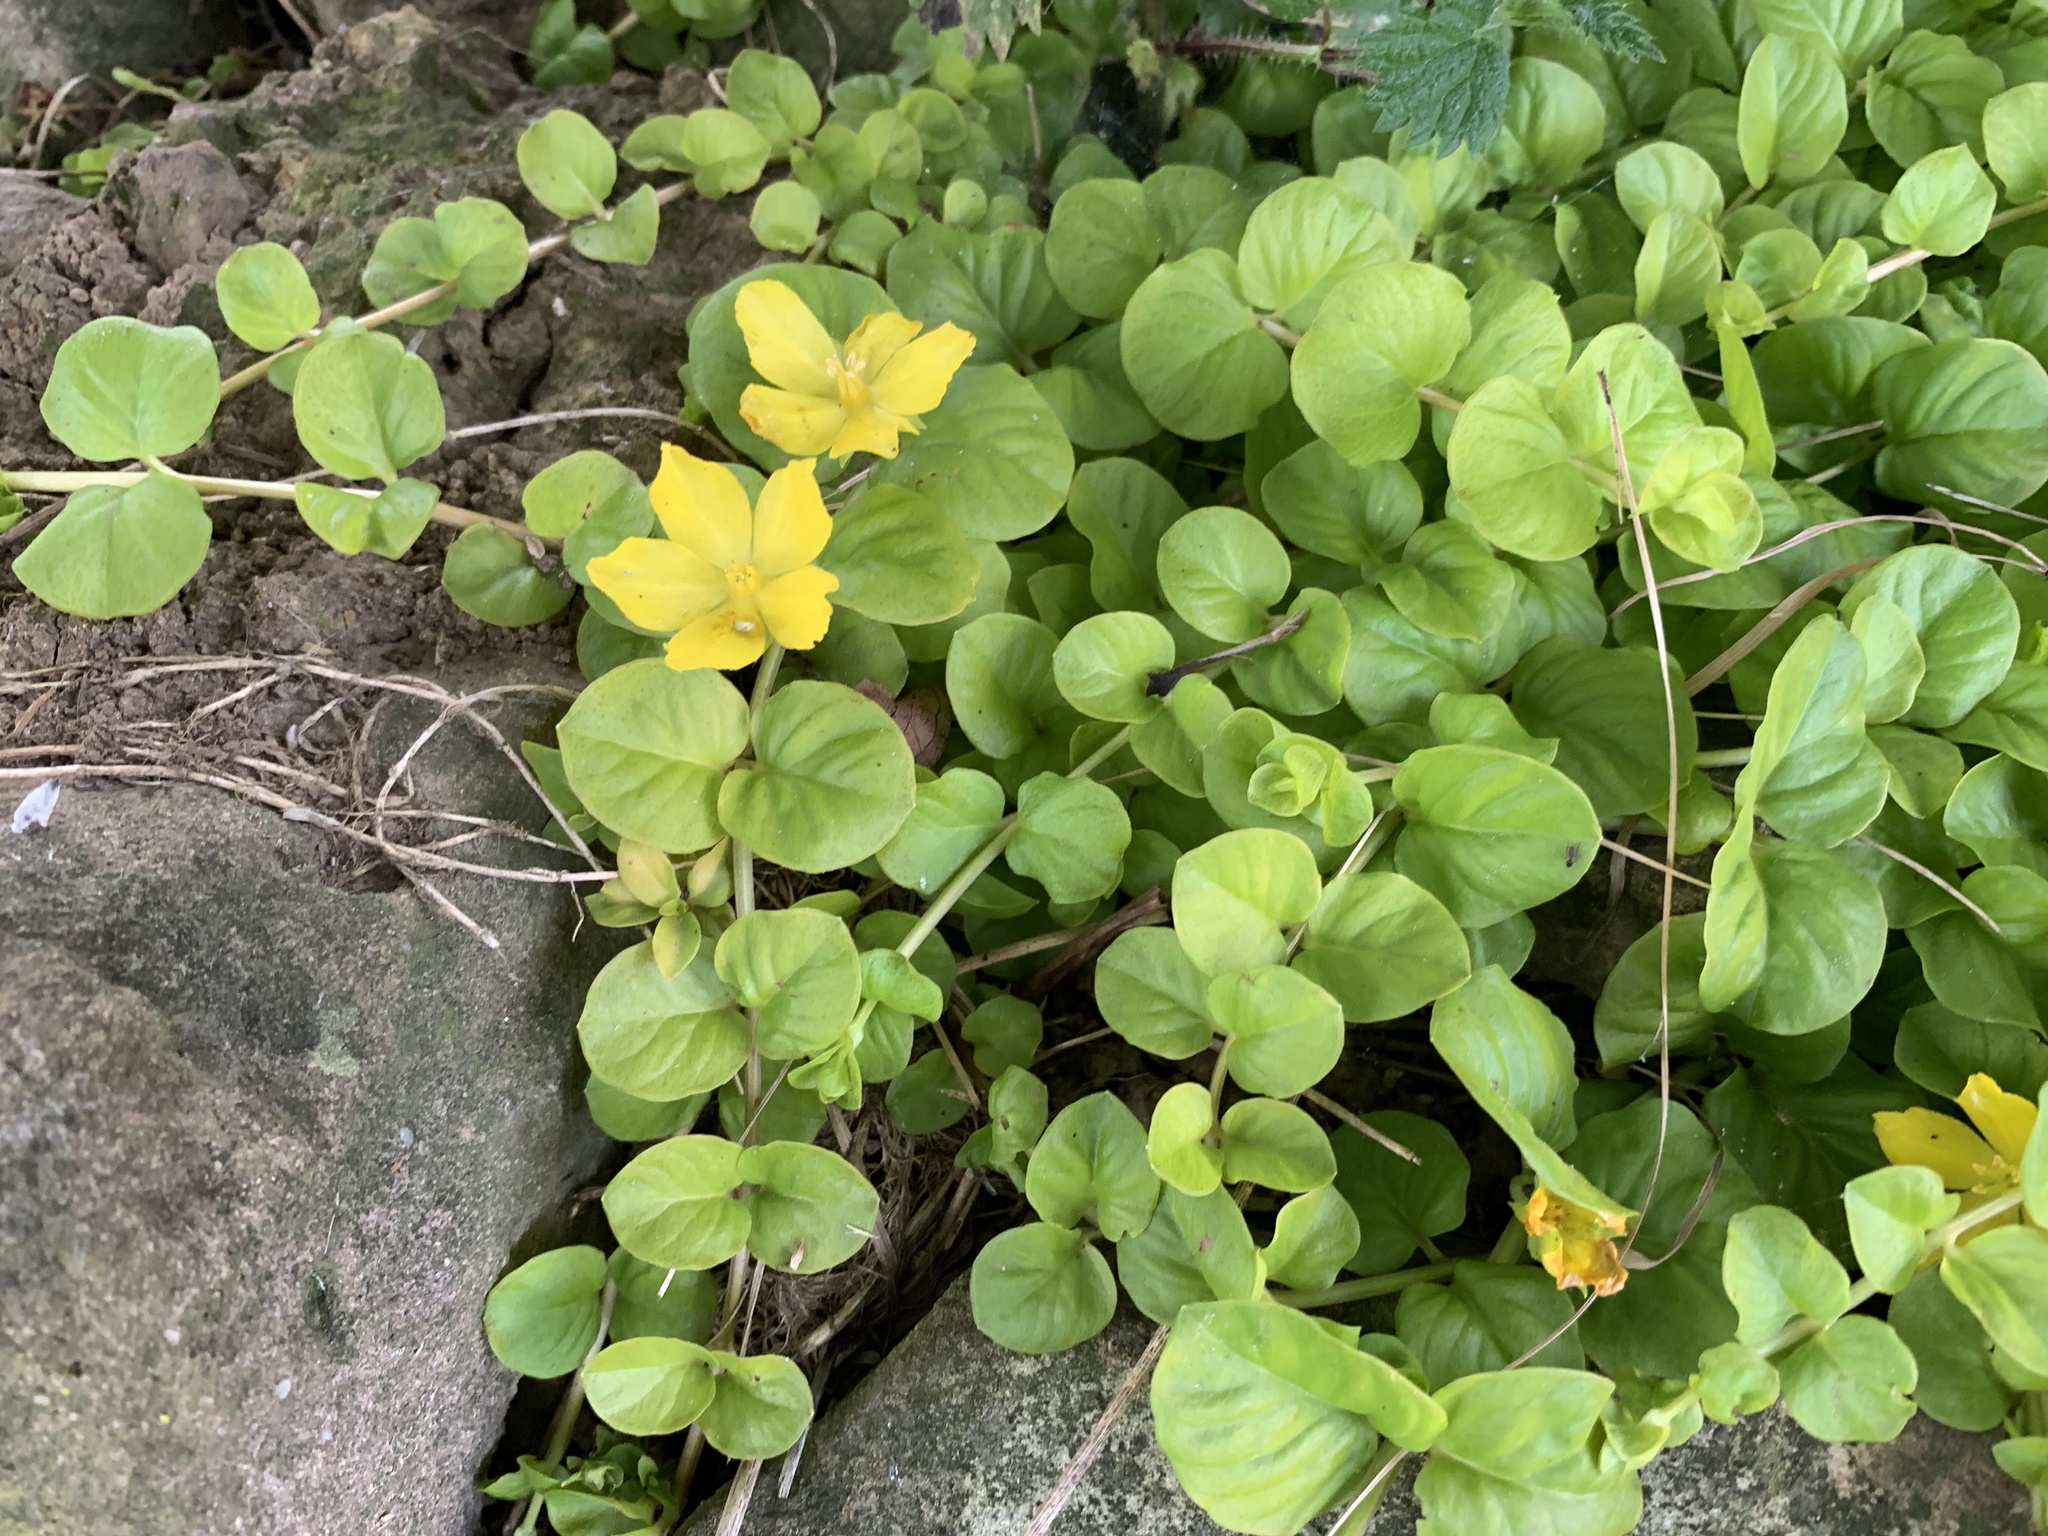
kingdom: Plantae
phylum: Tracheophyta
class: Magnoliopsida
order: Ericales
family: Primulaceae
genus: Lysimachia
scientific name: Lysimachia nummularia
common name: Moneywort
